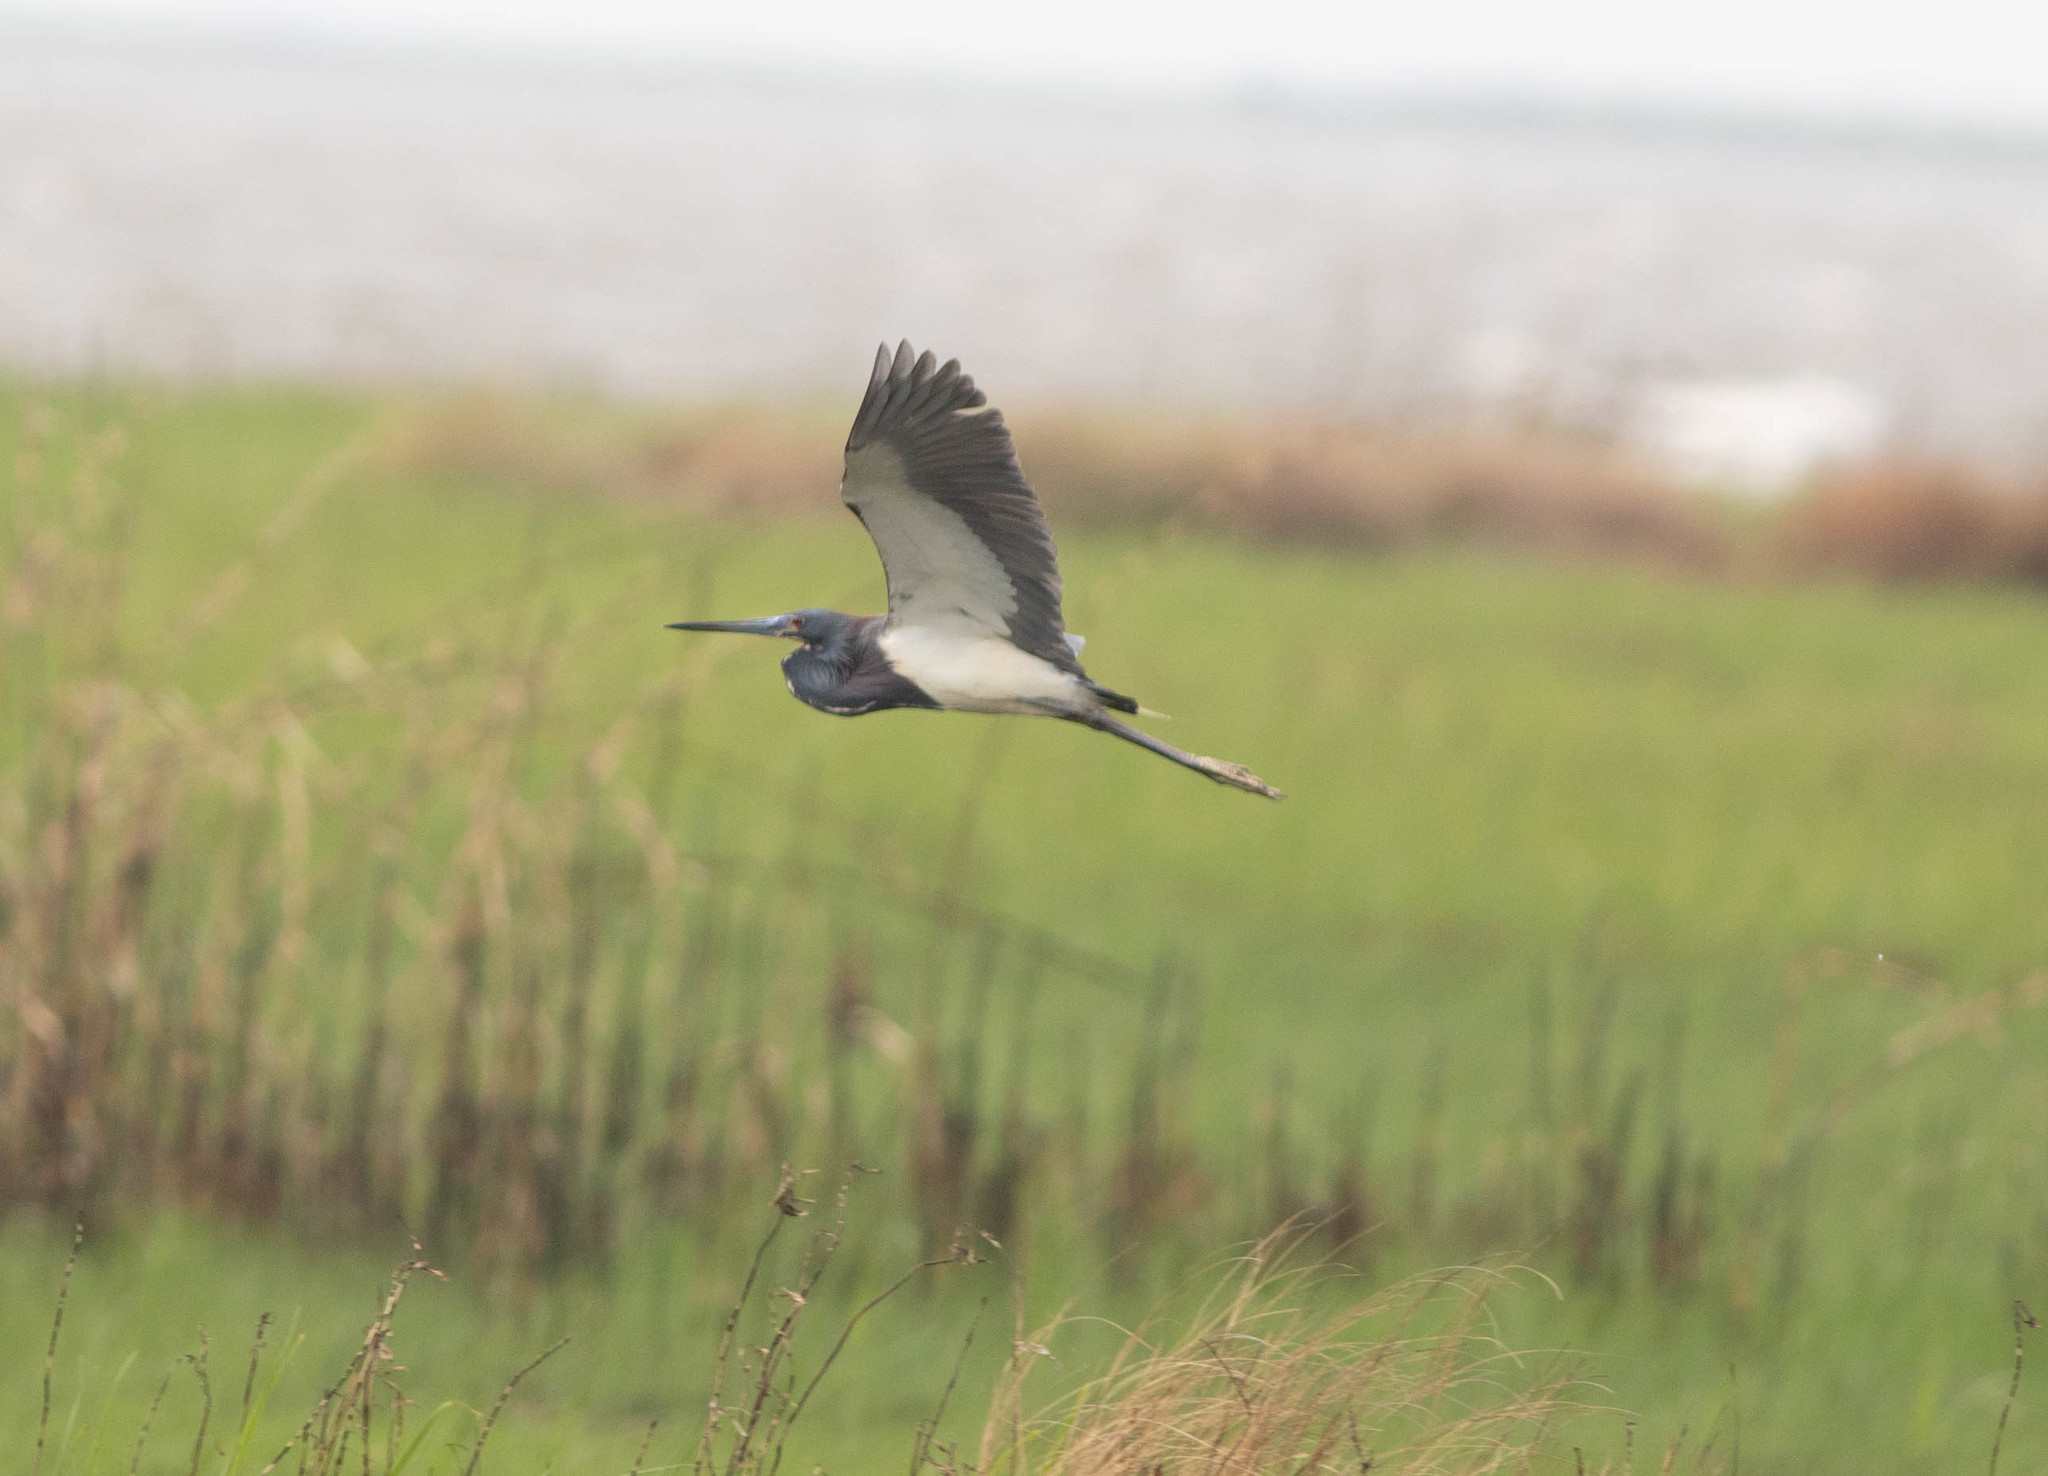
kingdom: Animalia
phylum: Chordata
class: Aves
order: Pelecaniformes
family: Ardeidae
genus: Egretta
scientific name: Egretta tricolor
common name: Tricolored heron
